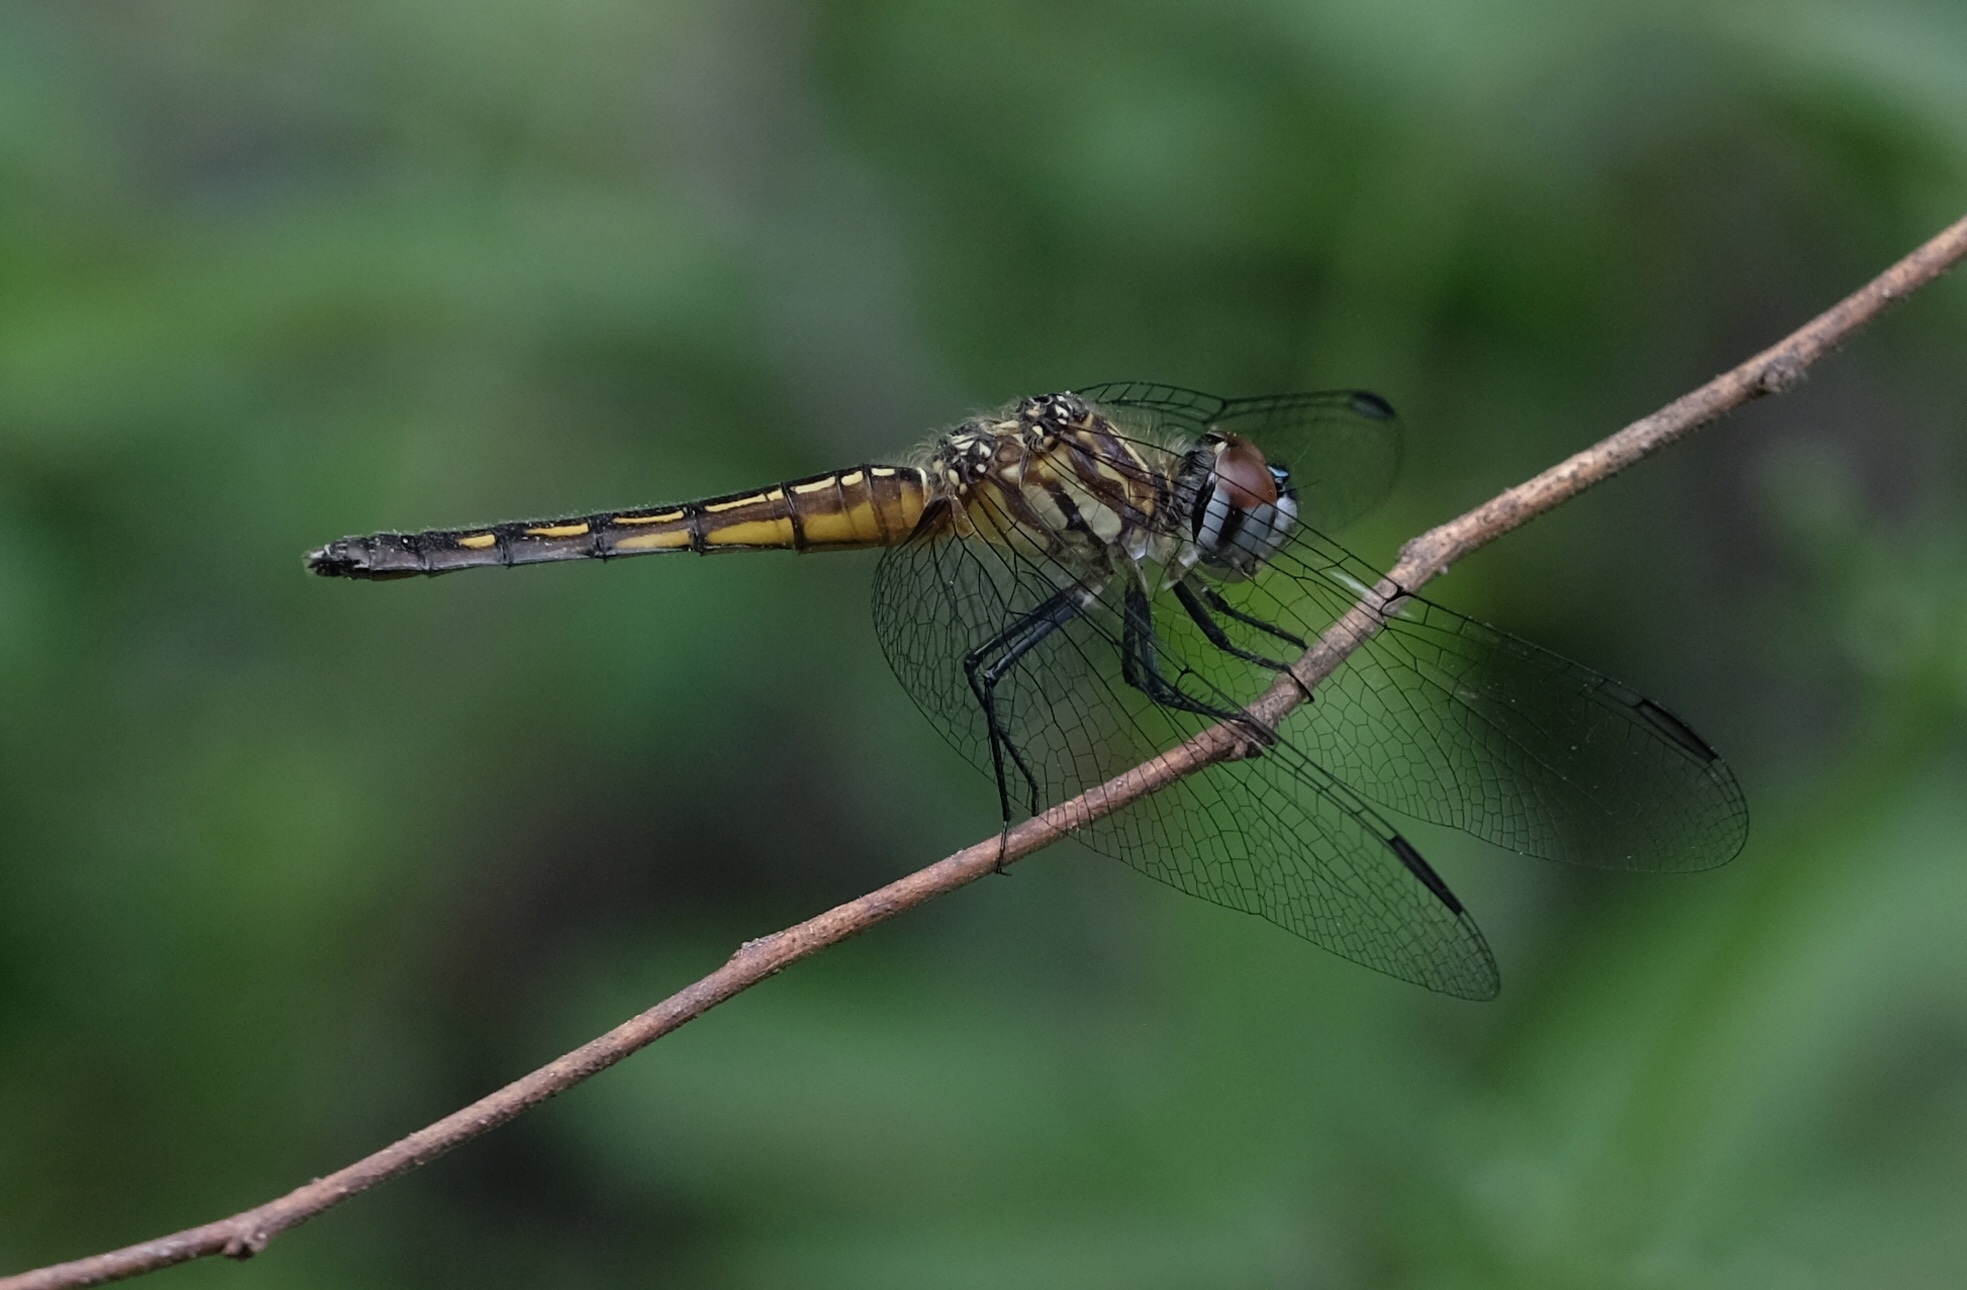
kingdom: Animalia
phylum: Arthropoda
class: Insecta
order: Odonata
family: Libellulidae
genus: Pachydiplax
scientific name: Pachydiplax longipennis
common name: Blue dasher
